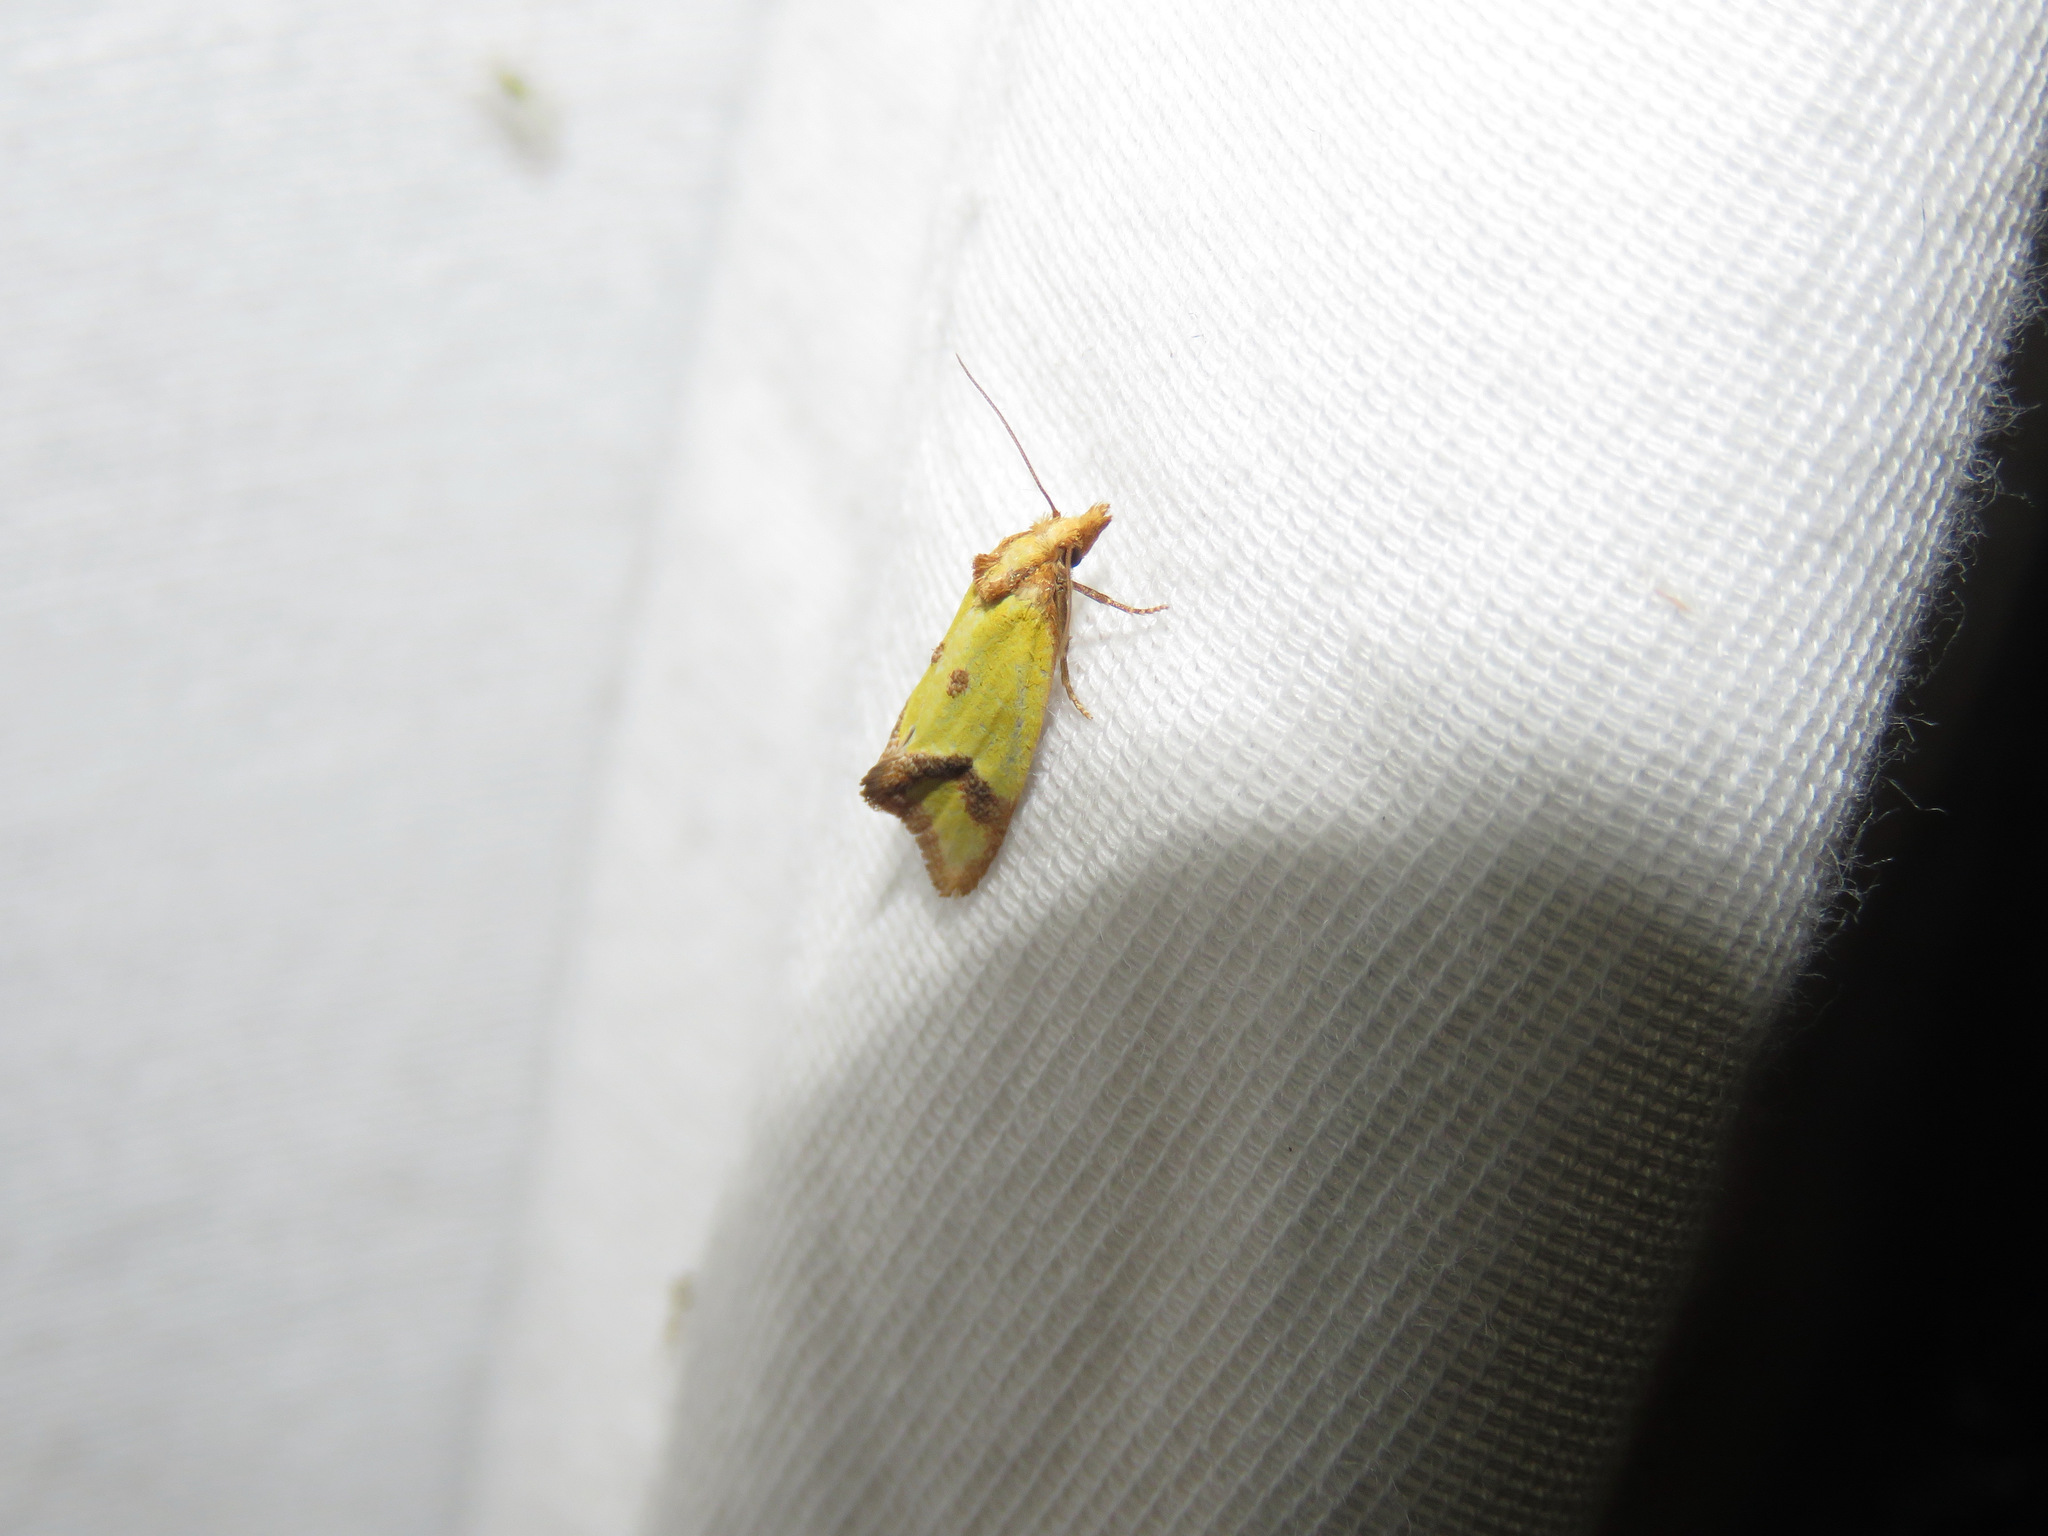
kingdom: Animalia
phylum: Arthropoda
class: Insecta
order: Lepidoptera
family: Tortricidae
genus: Agapeta
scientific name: Agapeta zoegana
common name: Sulfur knapweed root moth
